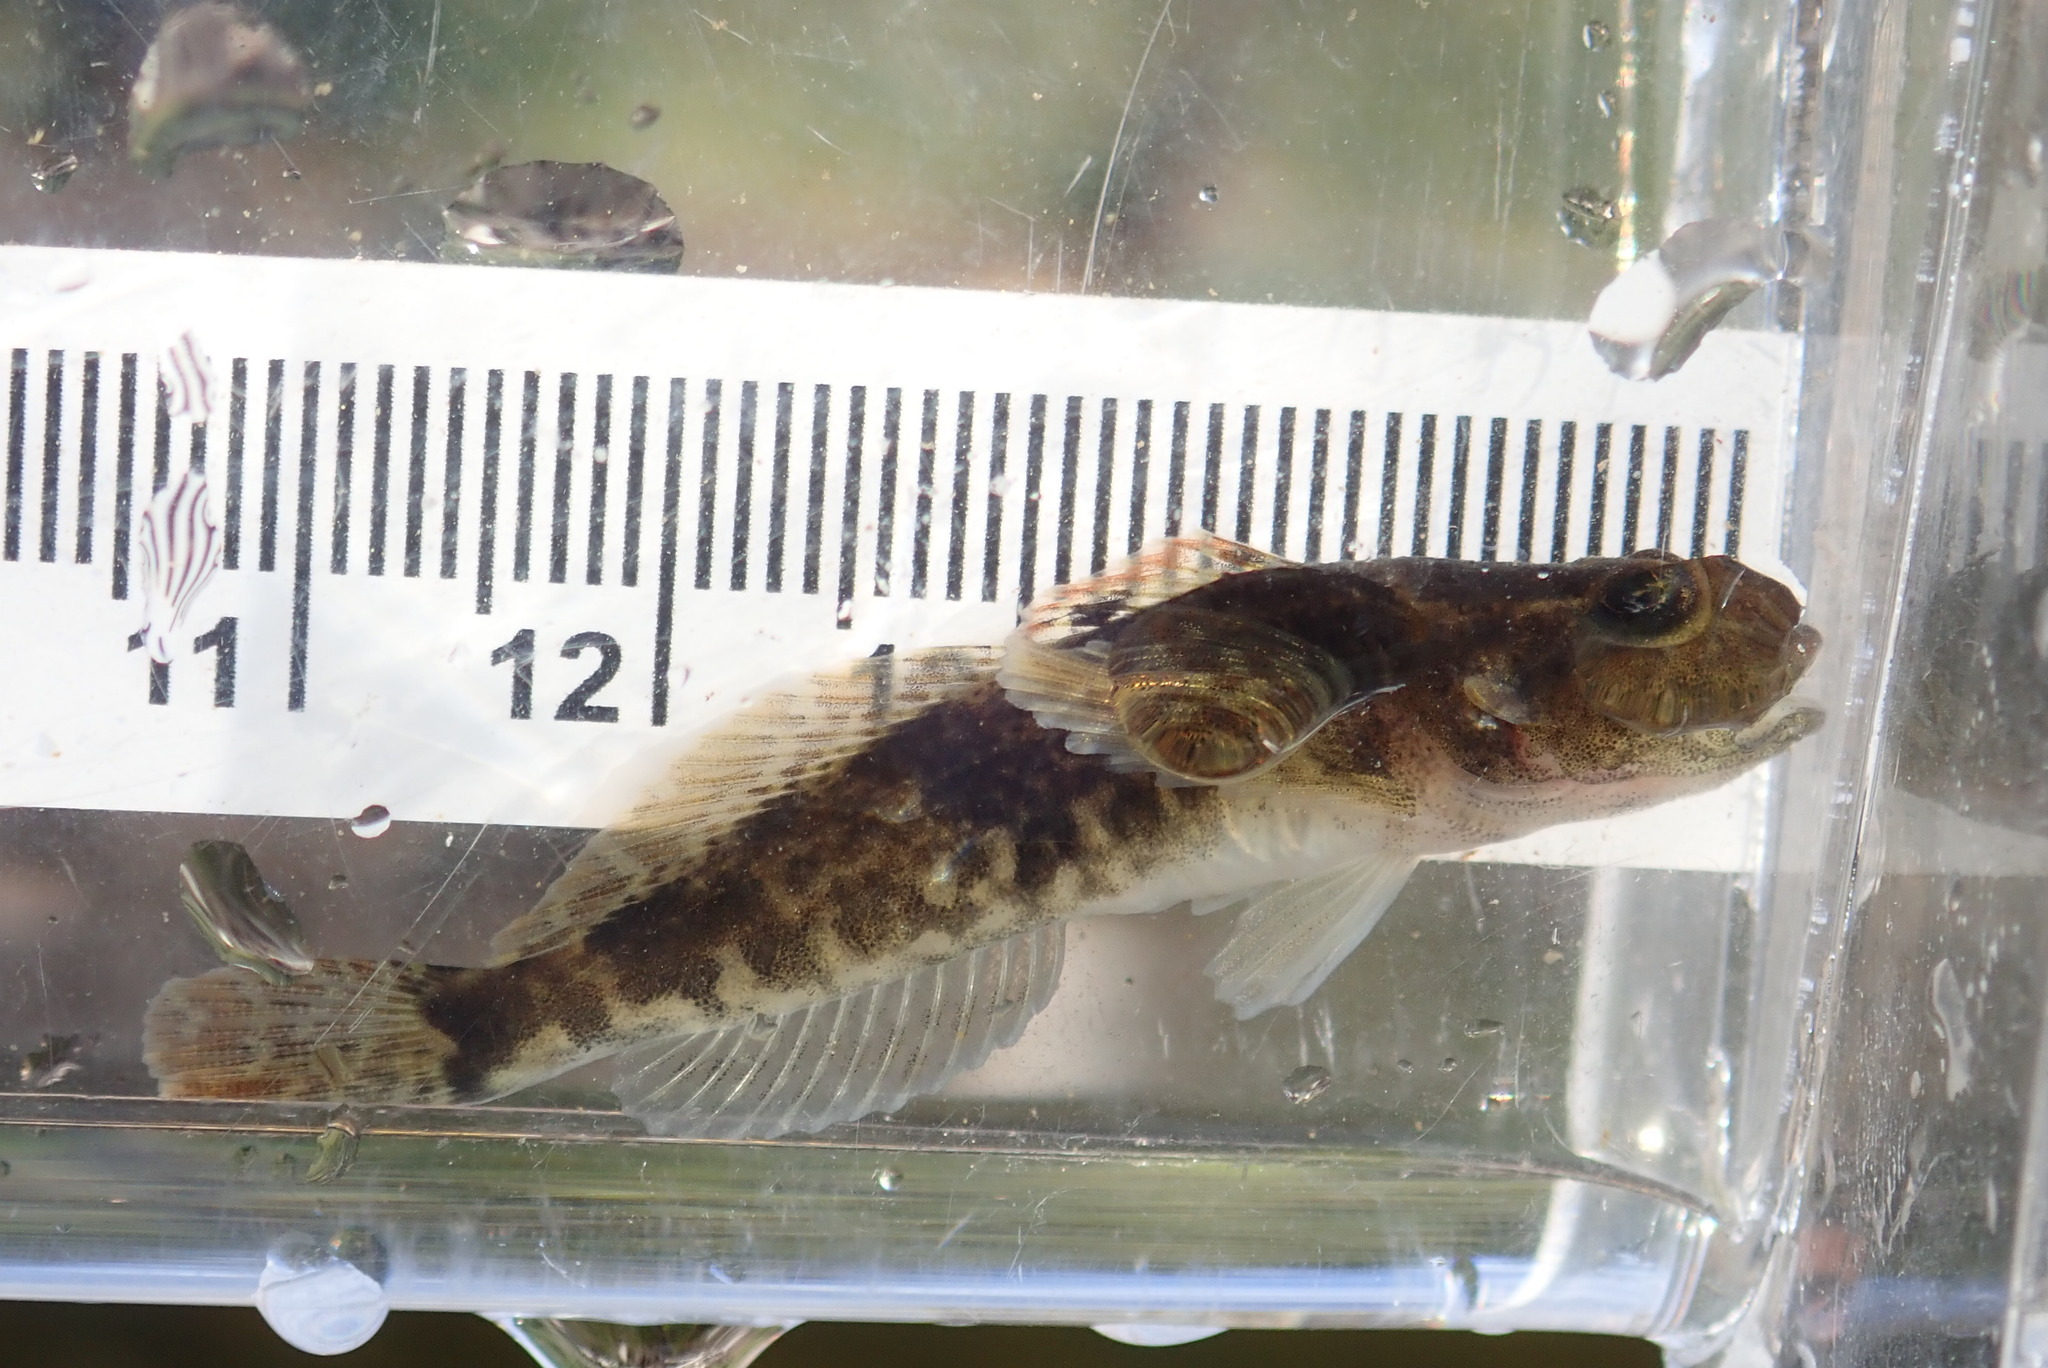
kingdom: Animalia
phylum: Chordata
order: Scorpaeniformes
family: Cottidae
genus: Cottus
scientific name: Cottus bairdii
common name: Mottled sculpin
